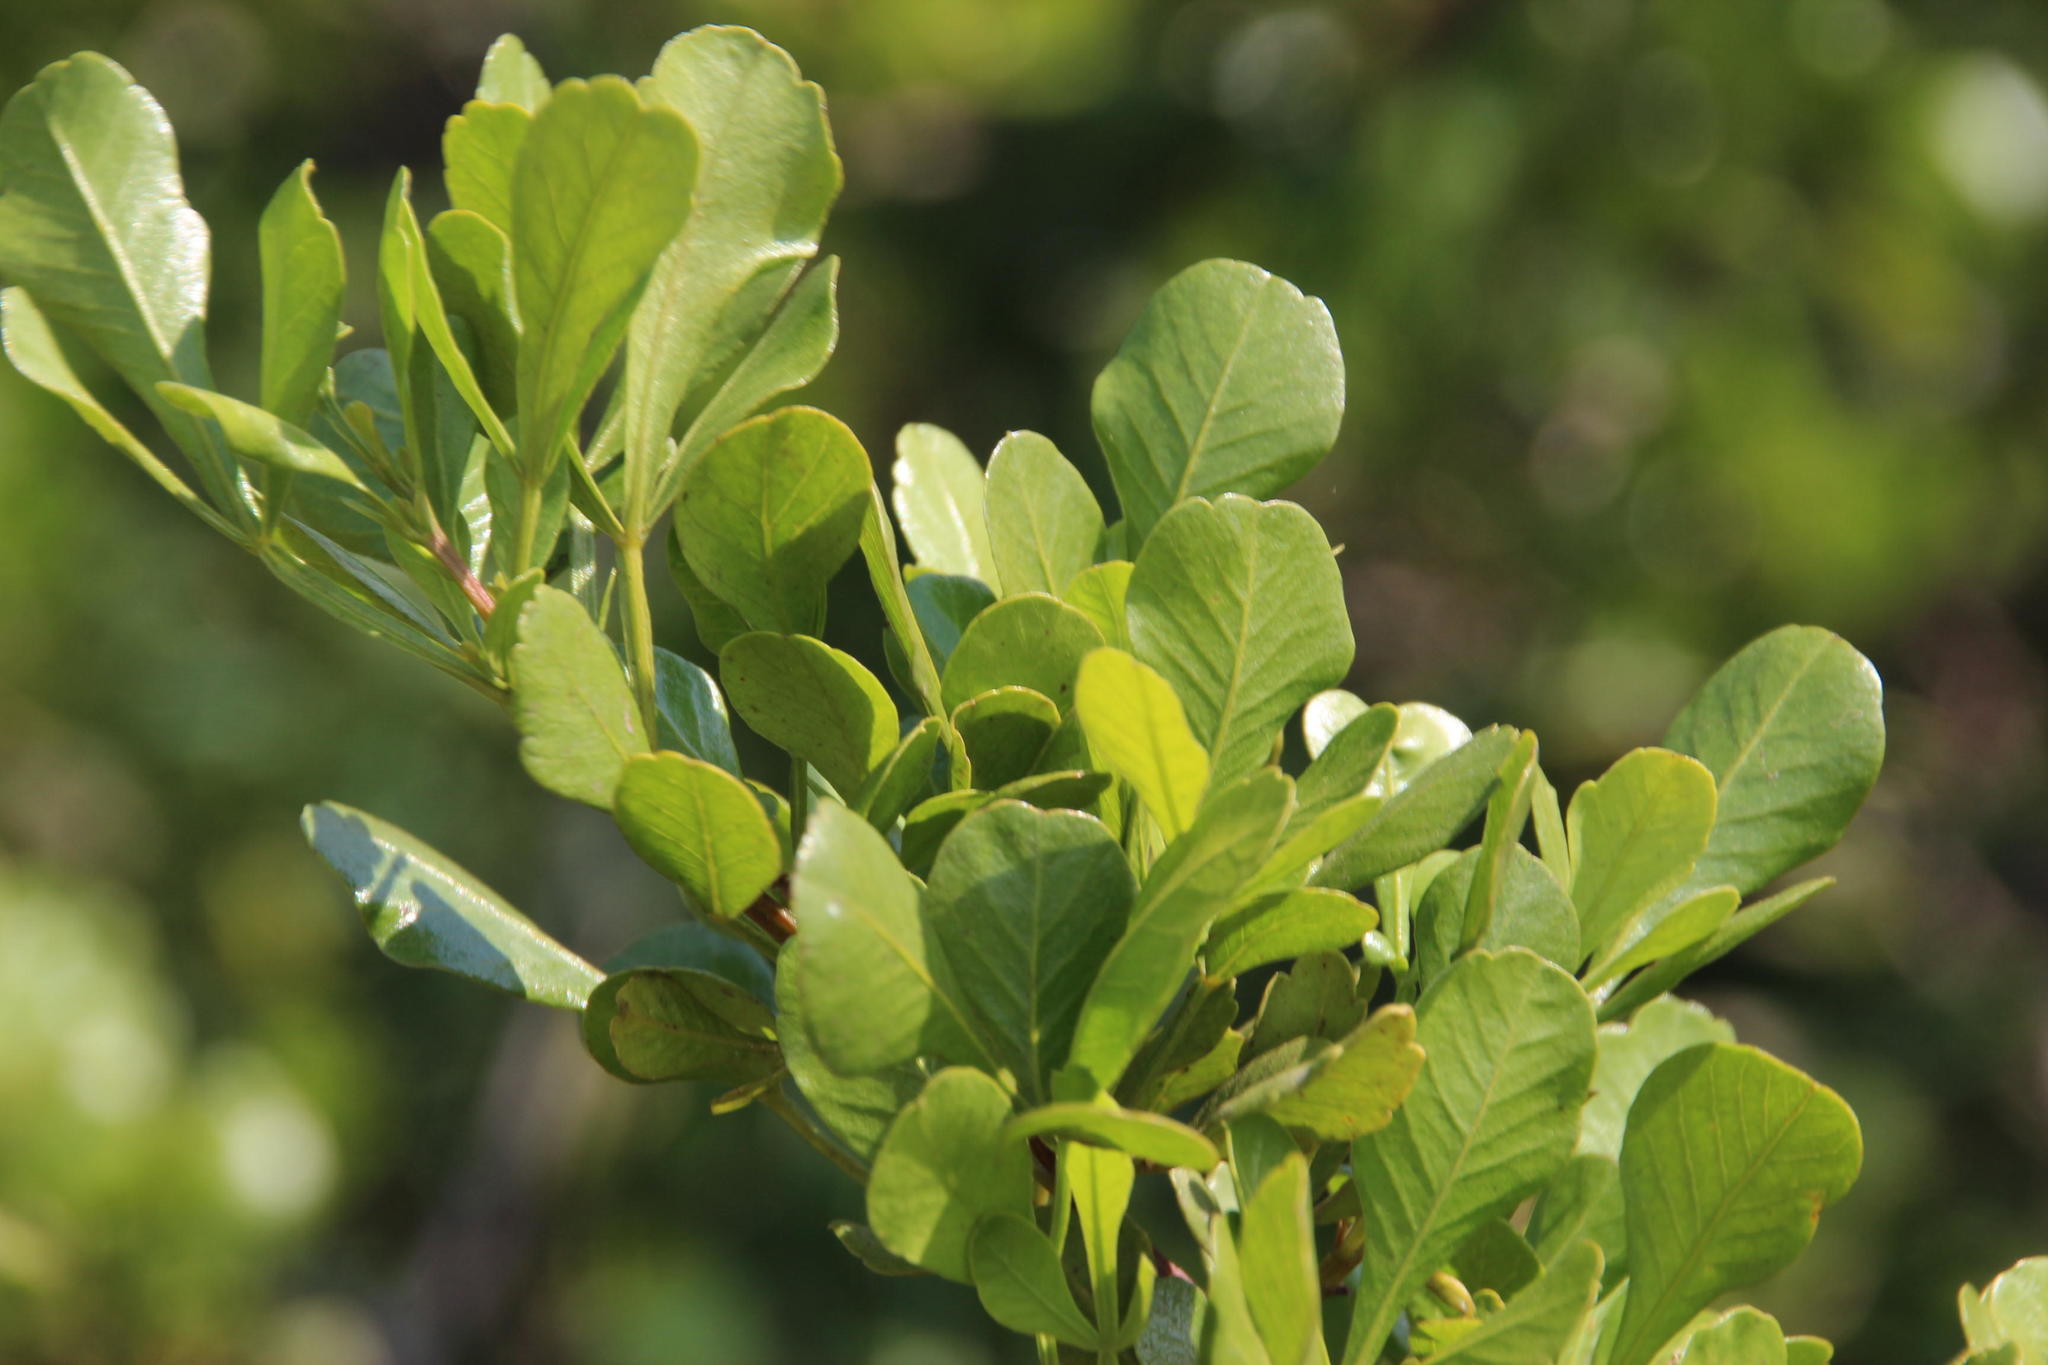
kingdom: Plantae
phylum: Tracheophyta
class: Magnoliopsida
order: Sapindales
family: Anacardiaceae
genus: Searsia
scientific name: Searsia undulata
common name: Namaqua kunibush
